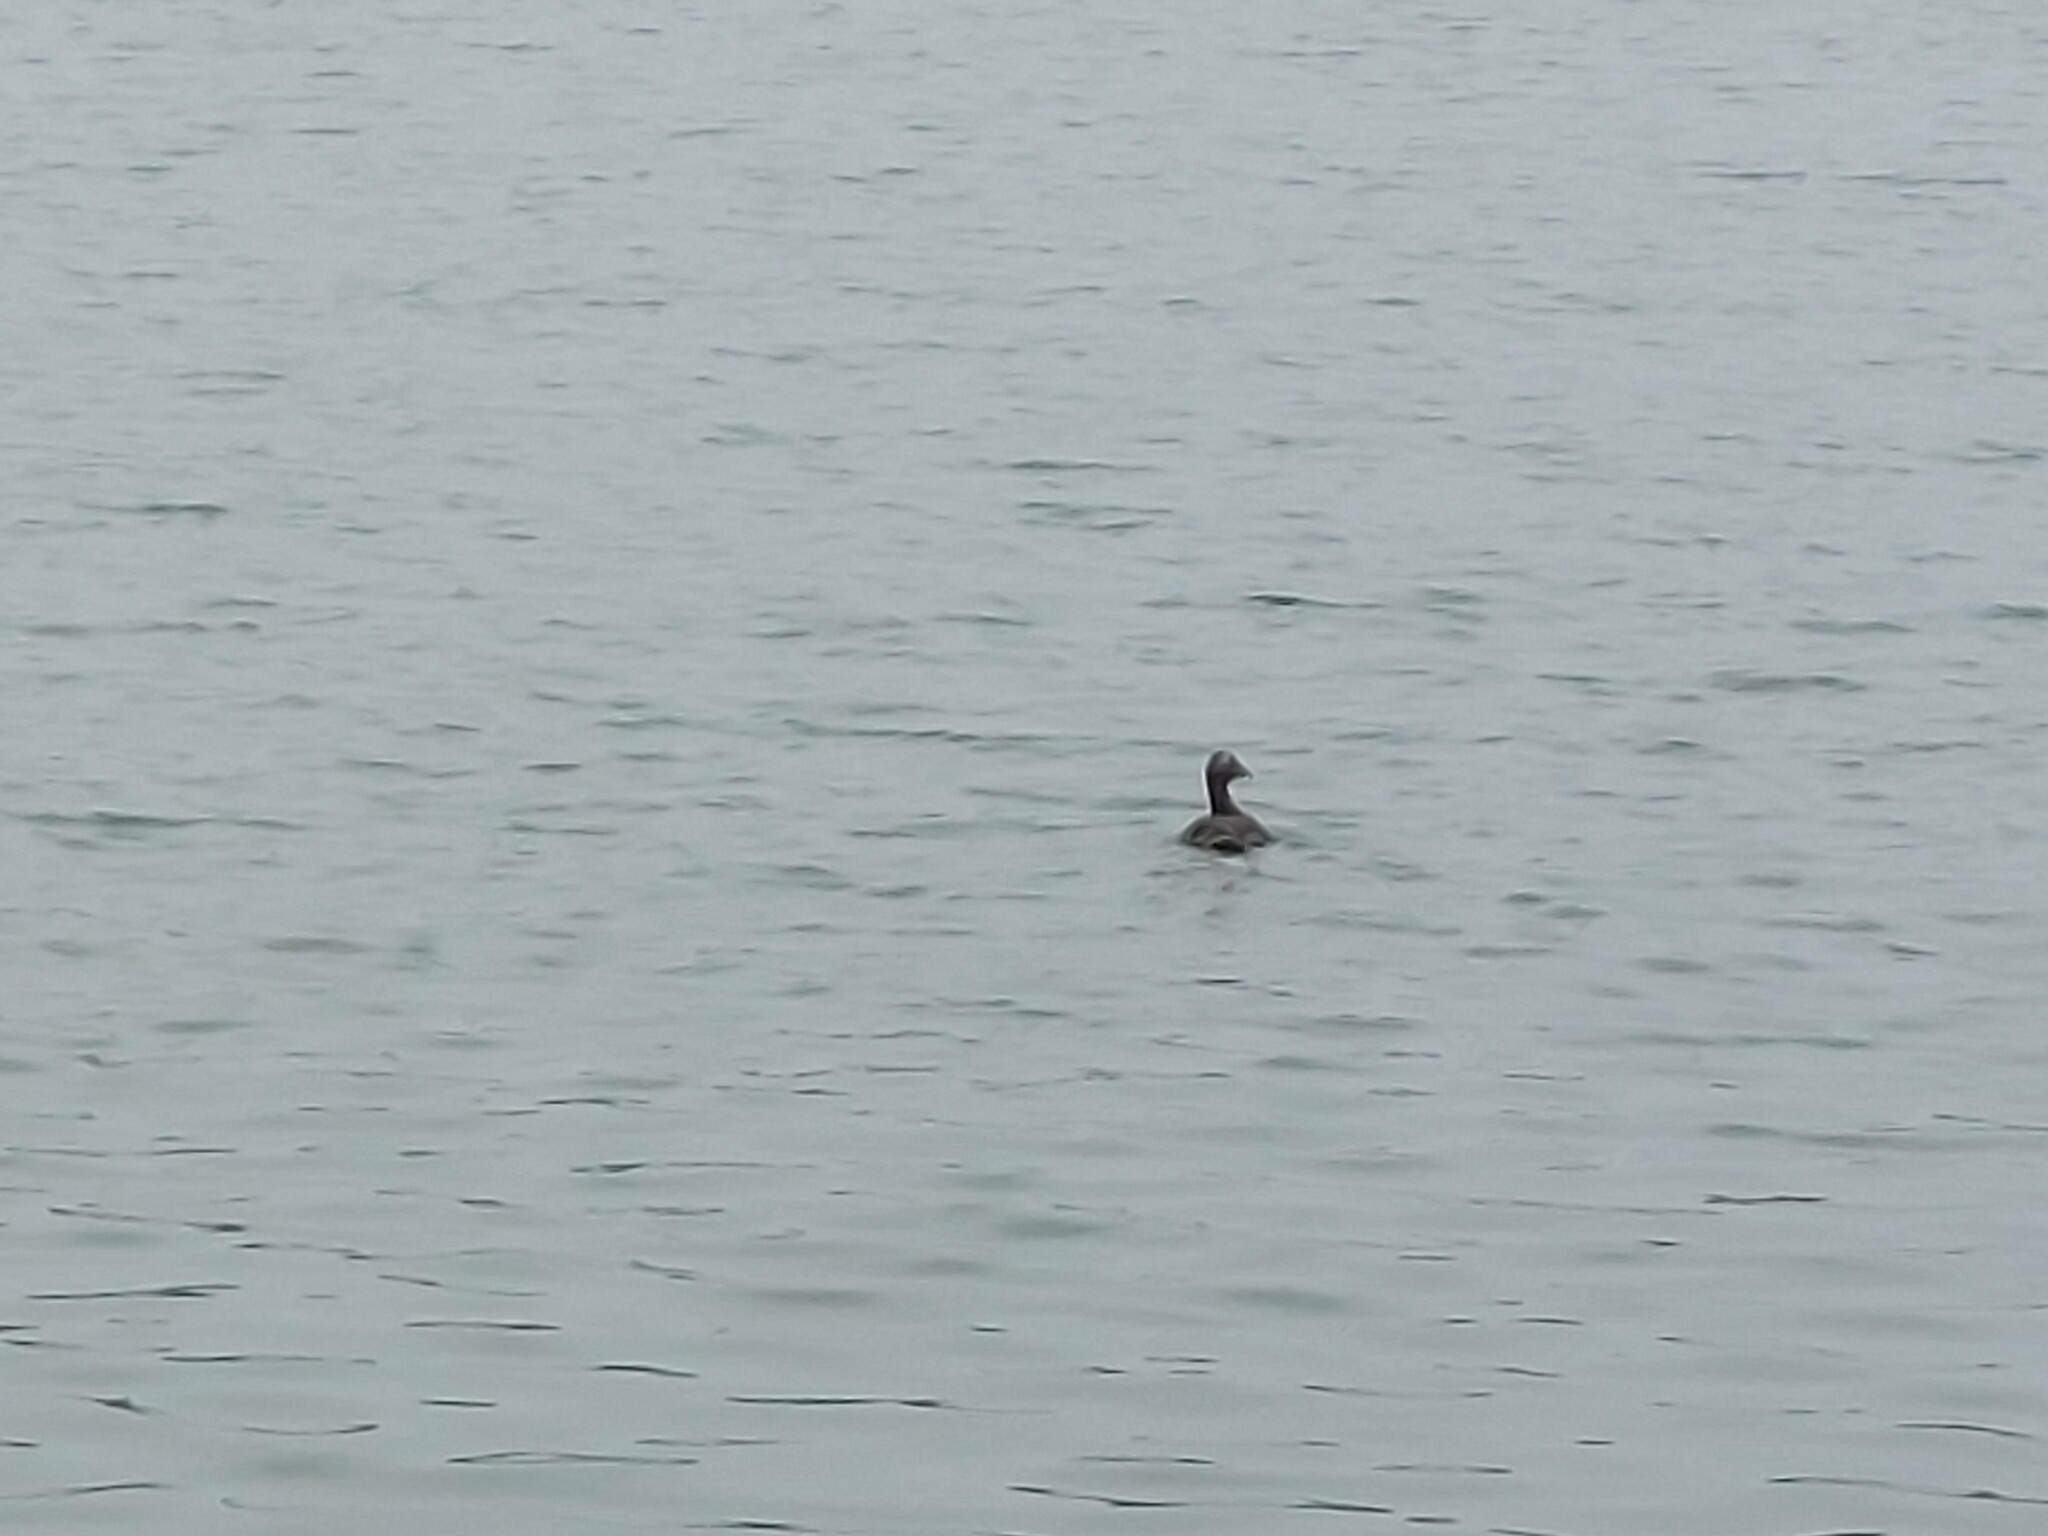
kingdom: Animalia
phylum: Chordata
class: Aves
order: Anseriformes
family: Anatidae
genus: Somateria
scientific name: Somateria mollissima
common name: Common eider
